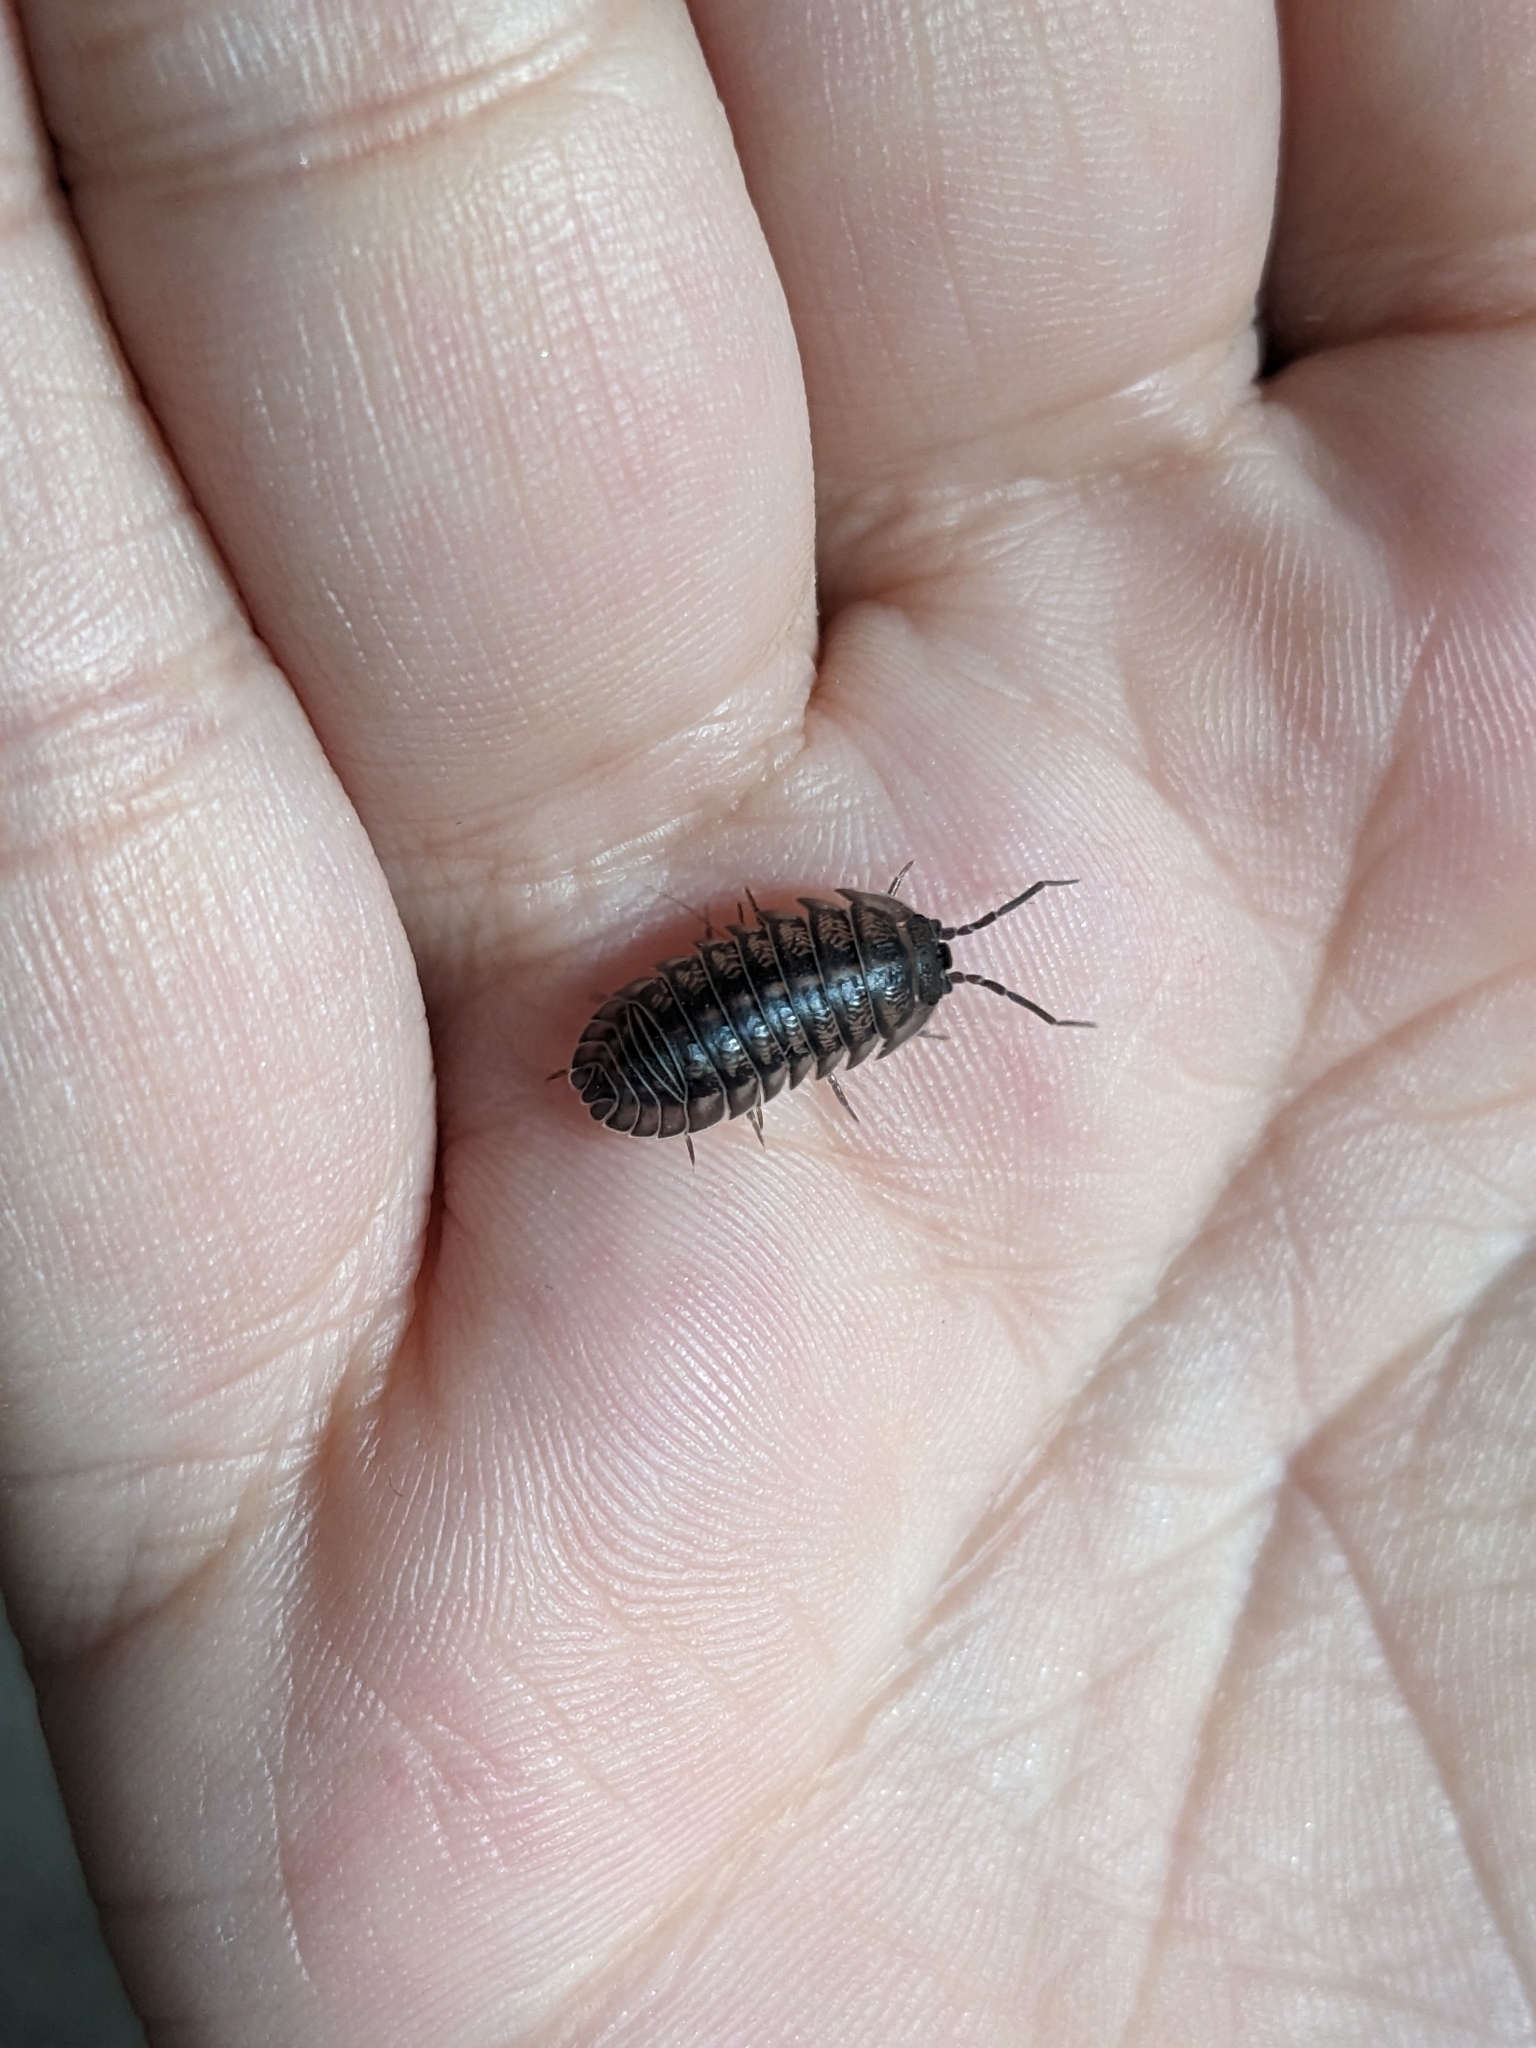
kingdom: Animalia
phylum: Arthropoda
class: Malacostraca
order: Isopoda
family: Armadillidiidae
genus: Armadillidium
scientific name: Armadillidium nasatum
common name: Isopod
